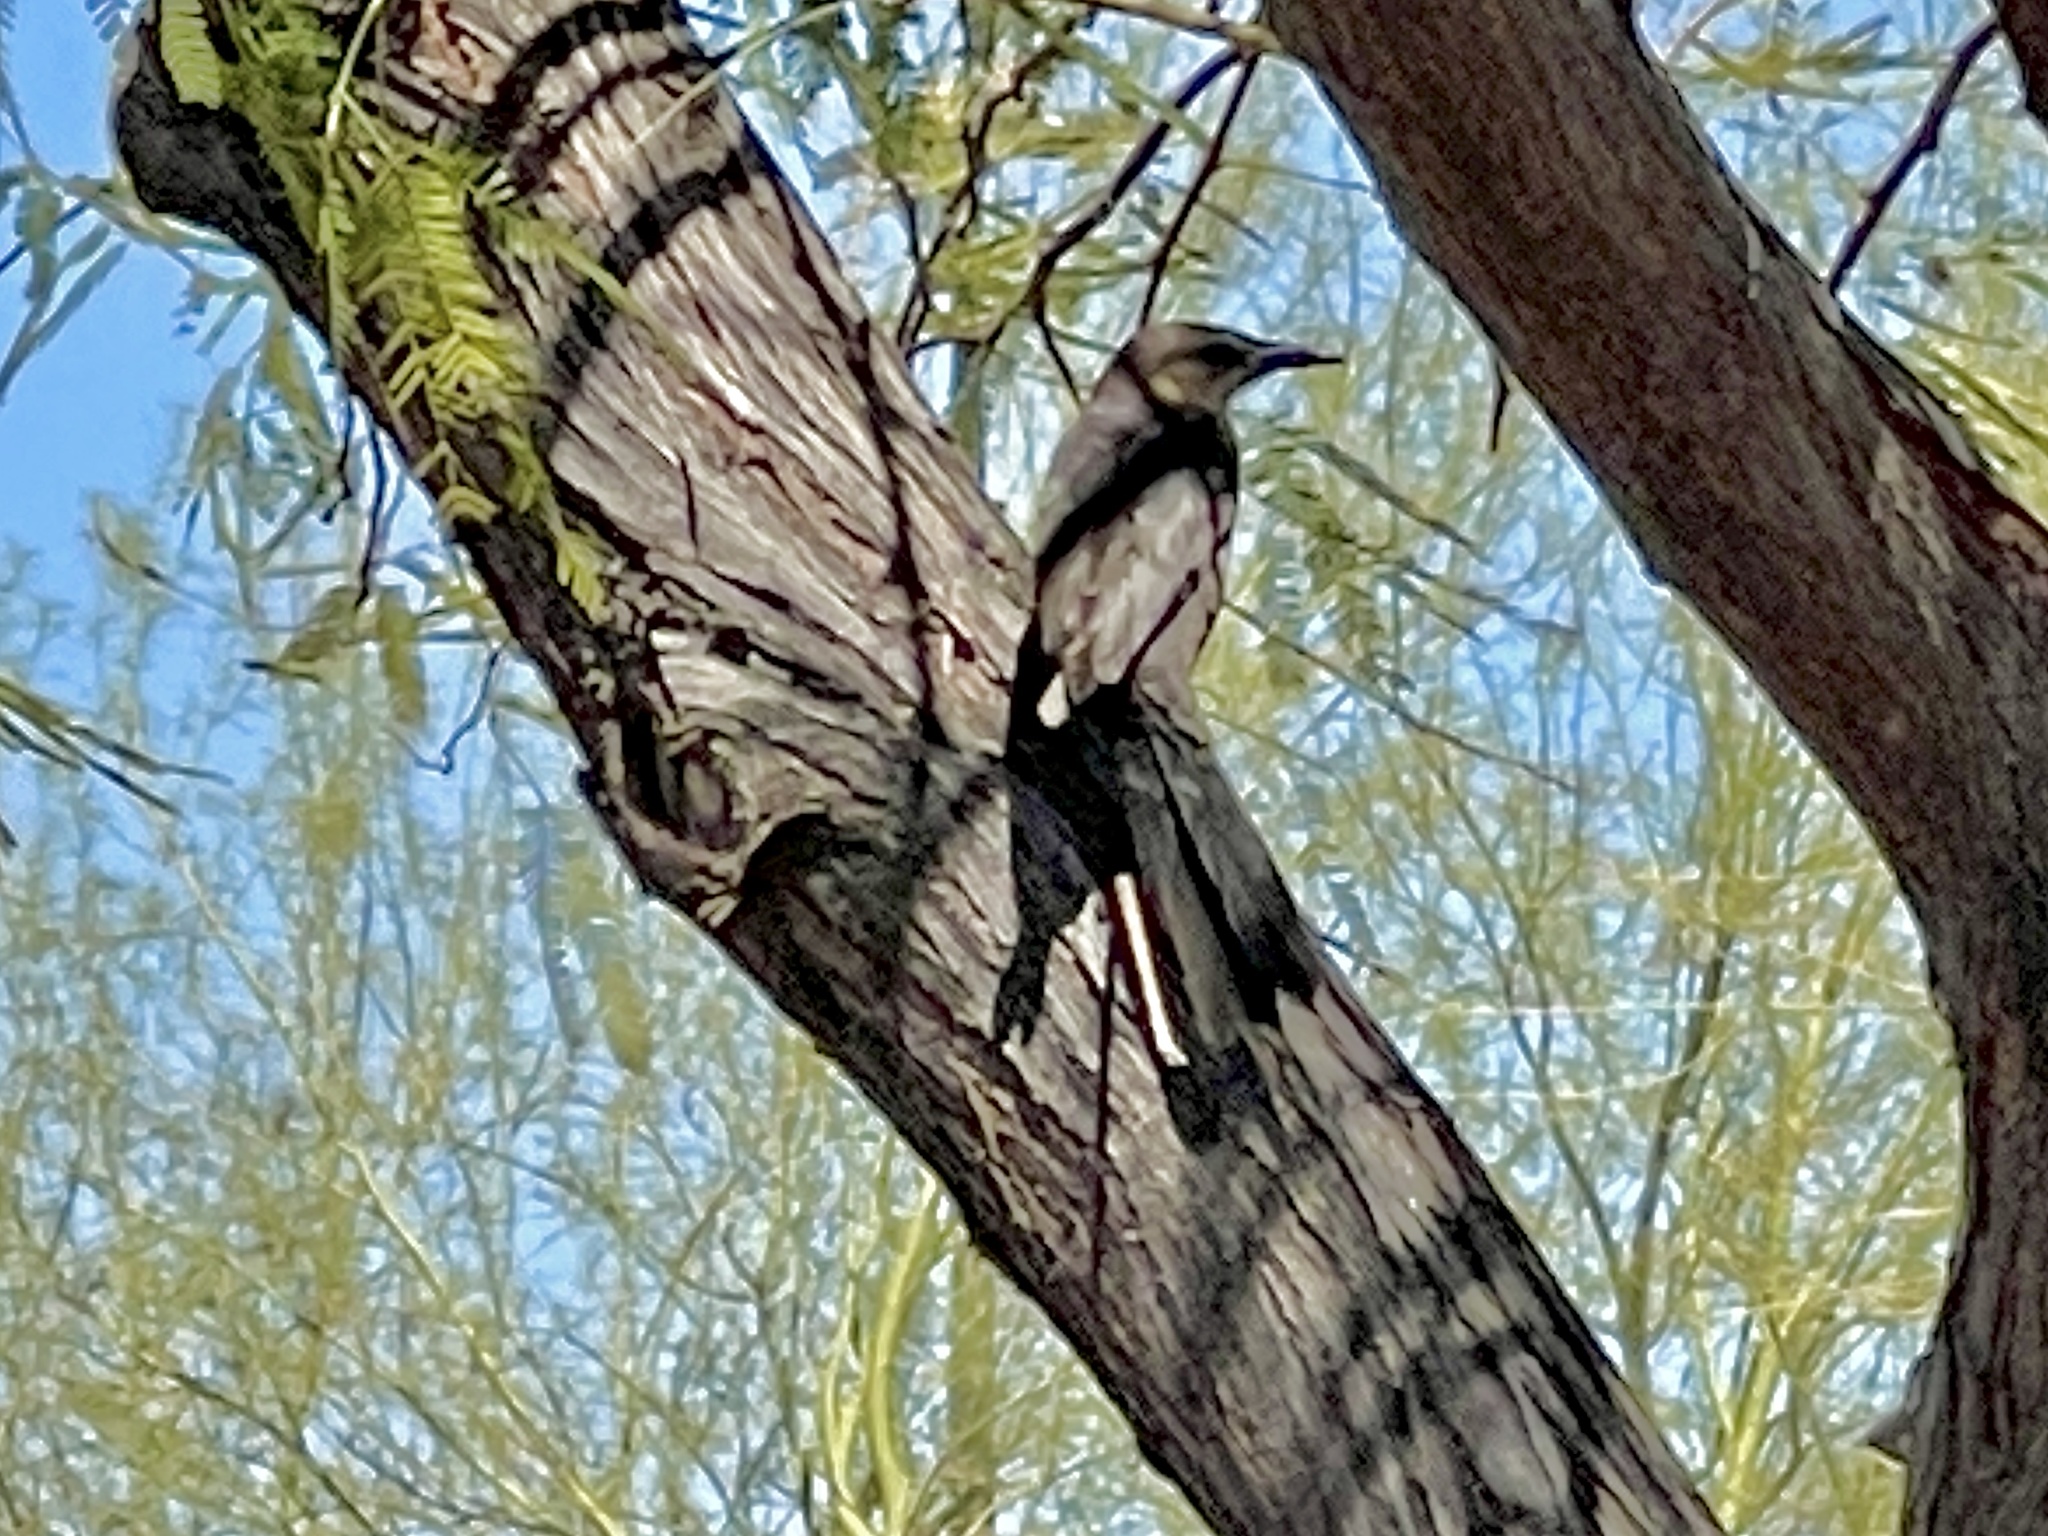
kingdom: Animalia
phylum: Chordata
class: Aves
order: Passeriformes
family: Icteridae
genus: Quiscalus
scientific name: Quiscalus mexicanus
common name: Great-tailed grackle
